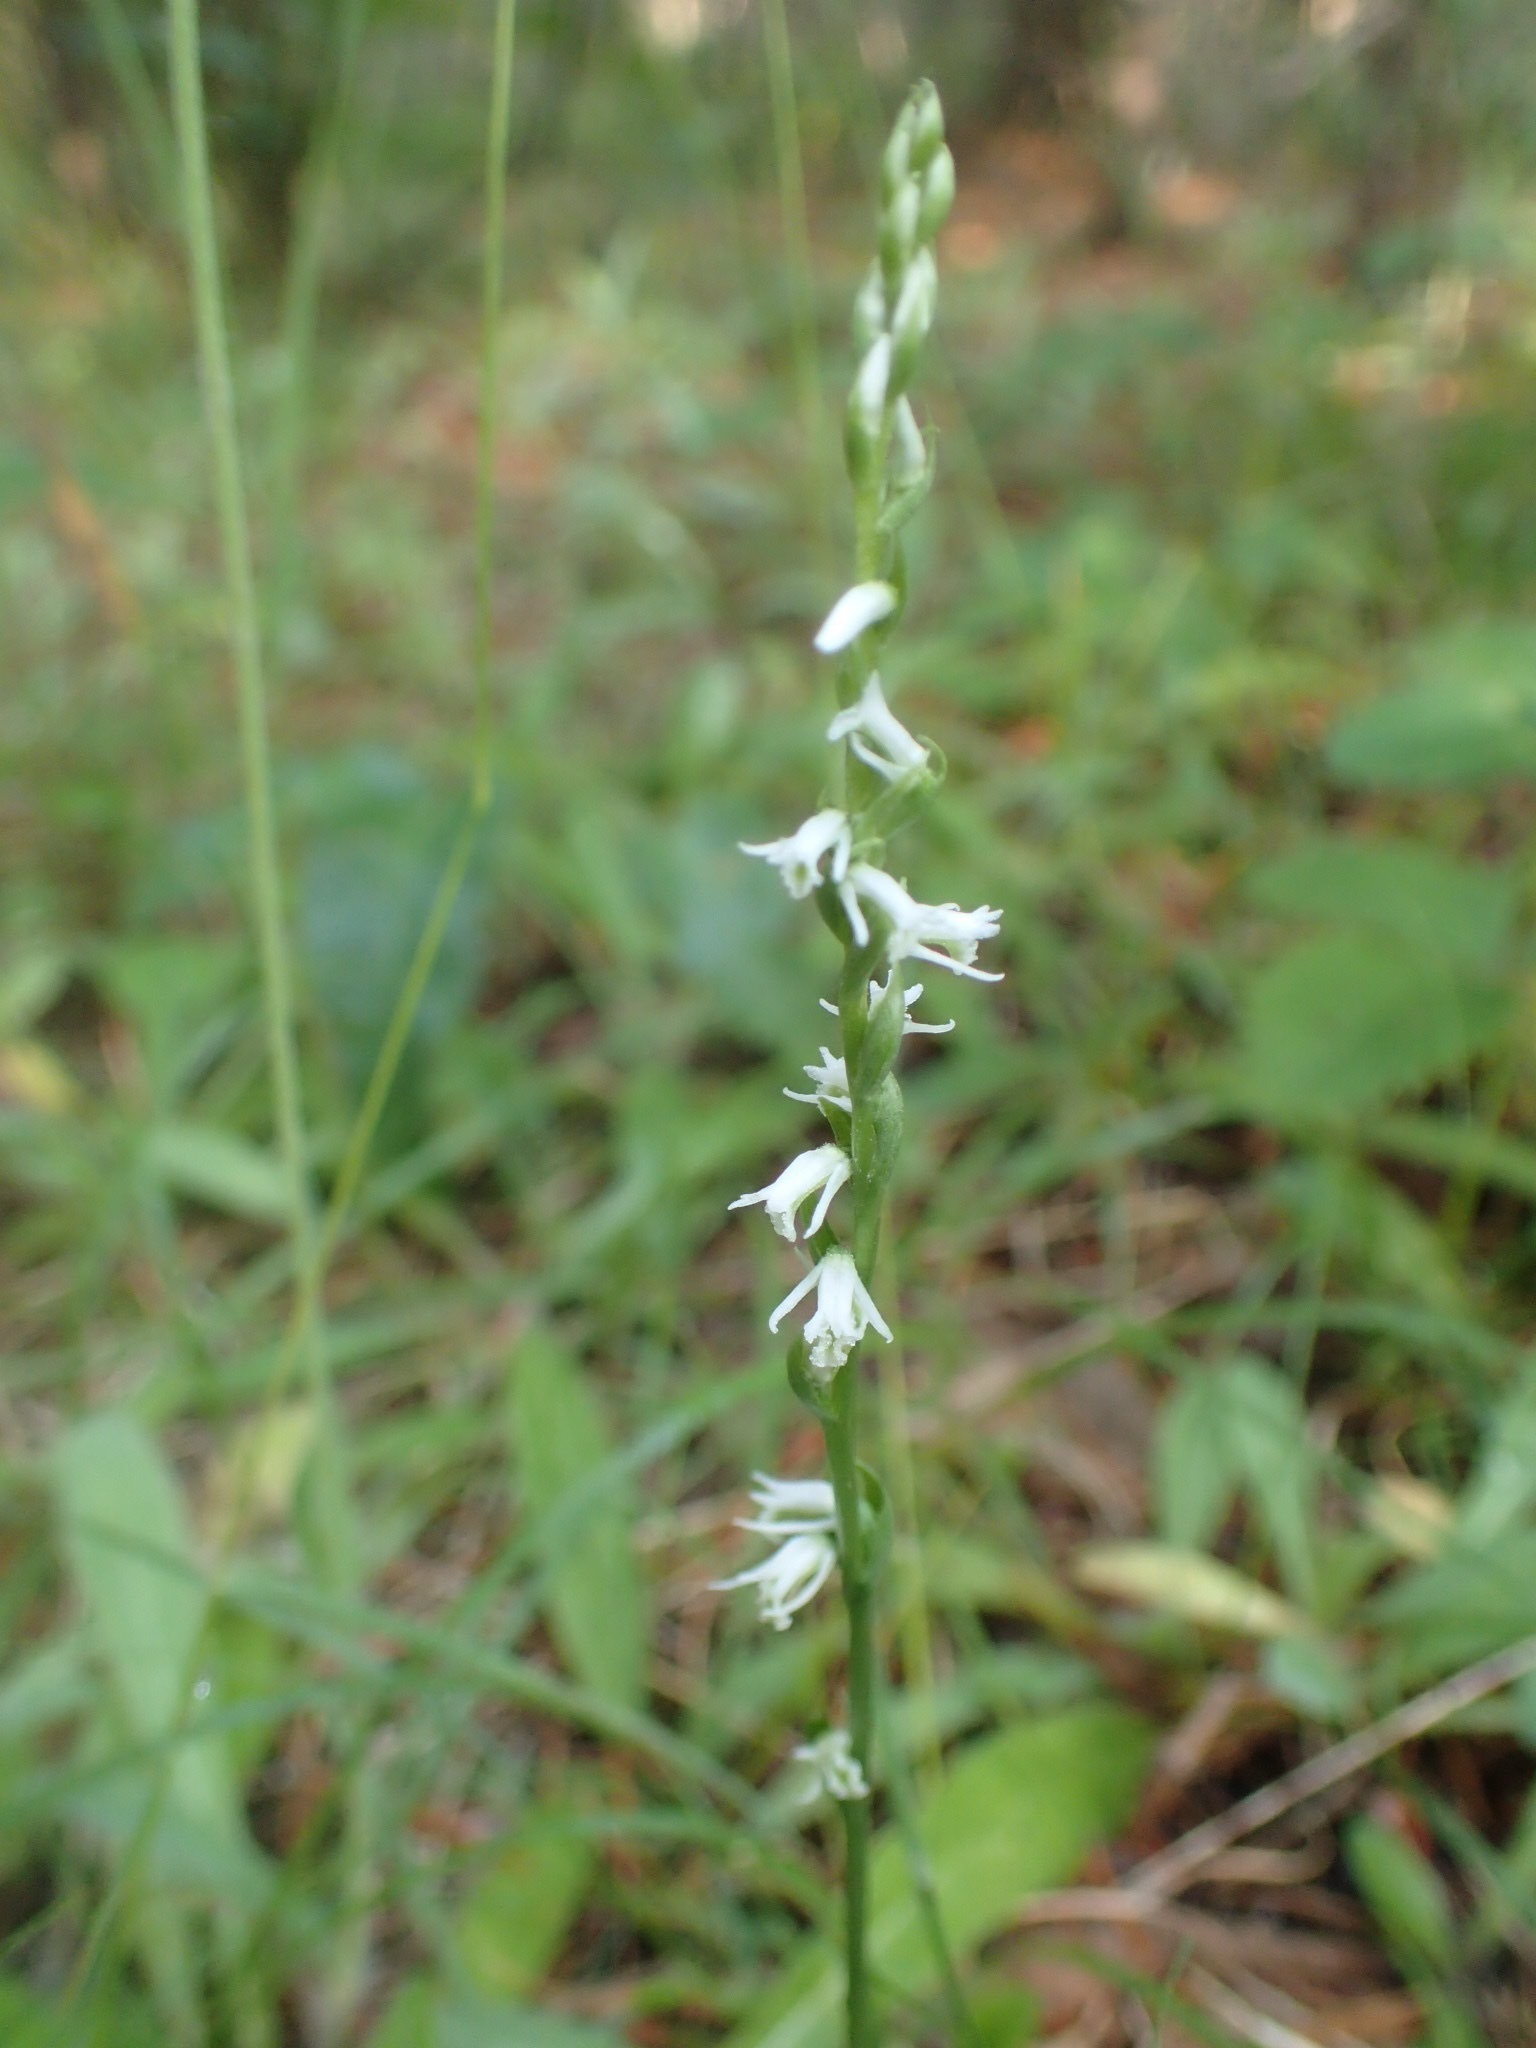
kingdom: Plantae
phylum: Tracheophyta
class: Liliopsida
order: Asparagales
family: Orchidaceae
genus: Spiranthes
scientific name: Spiranthes lacera
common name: Northern slender ladies'-tresses
